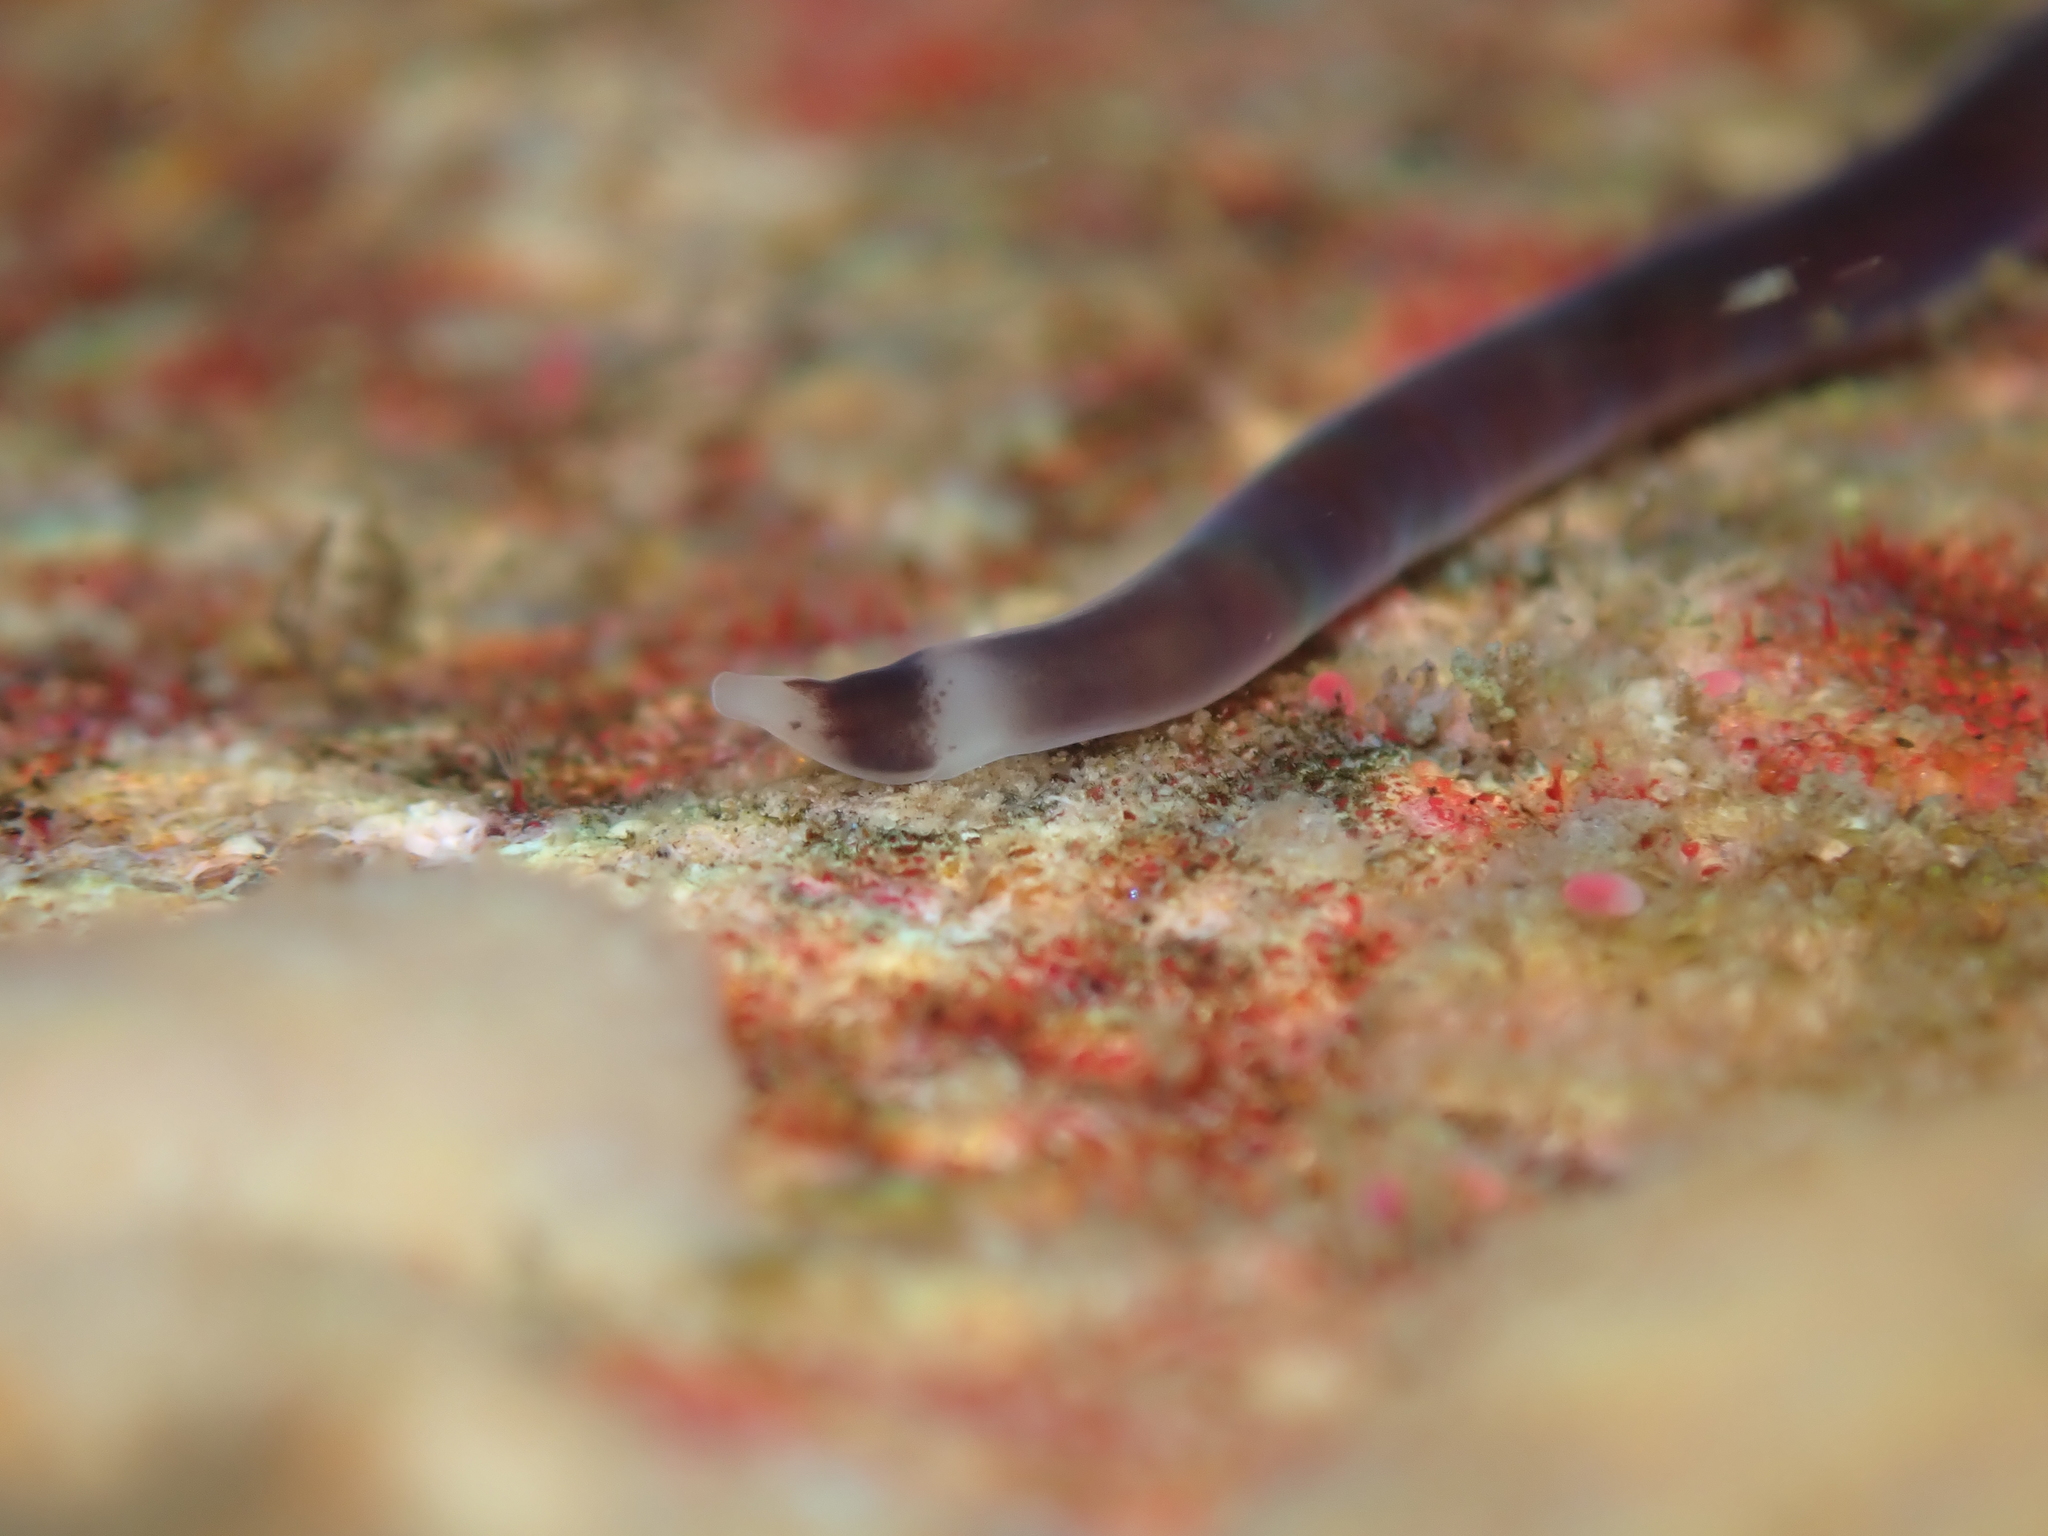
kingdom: Animalia
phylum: Nemertea
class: Hoplonemertea
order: Monostilifera
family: Neesiidae
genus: Noteonemertes
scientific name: Noteonemertes novaezealandiae
